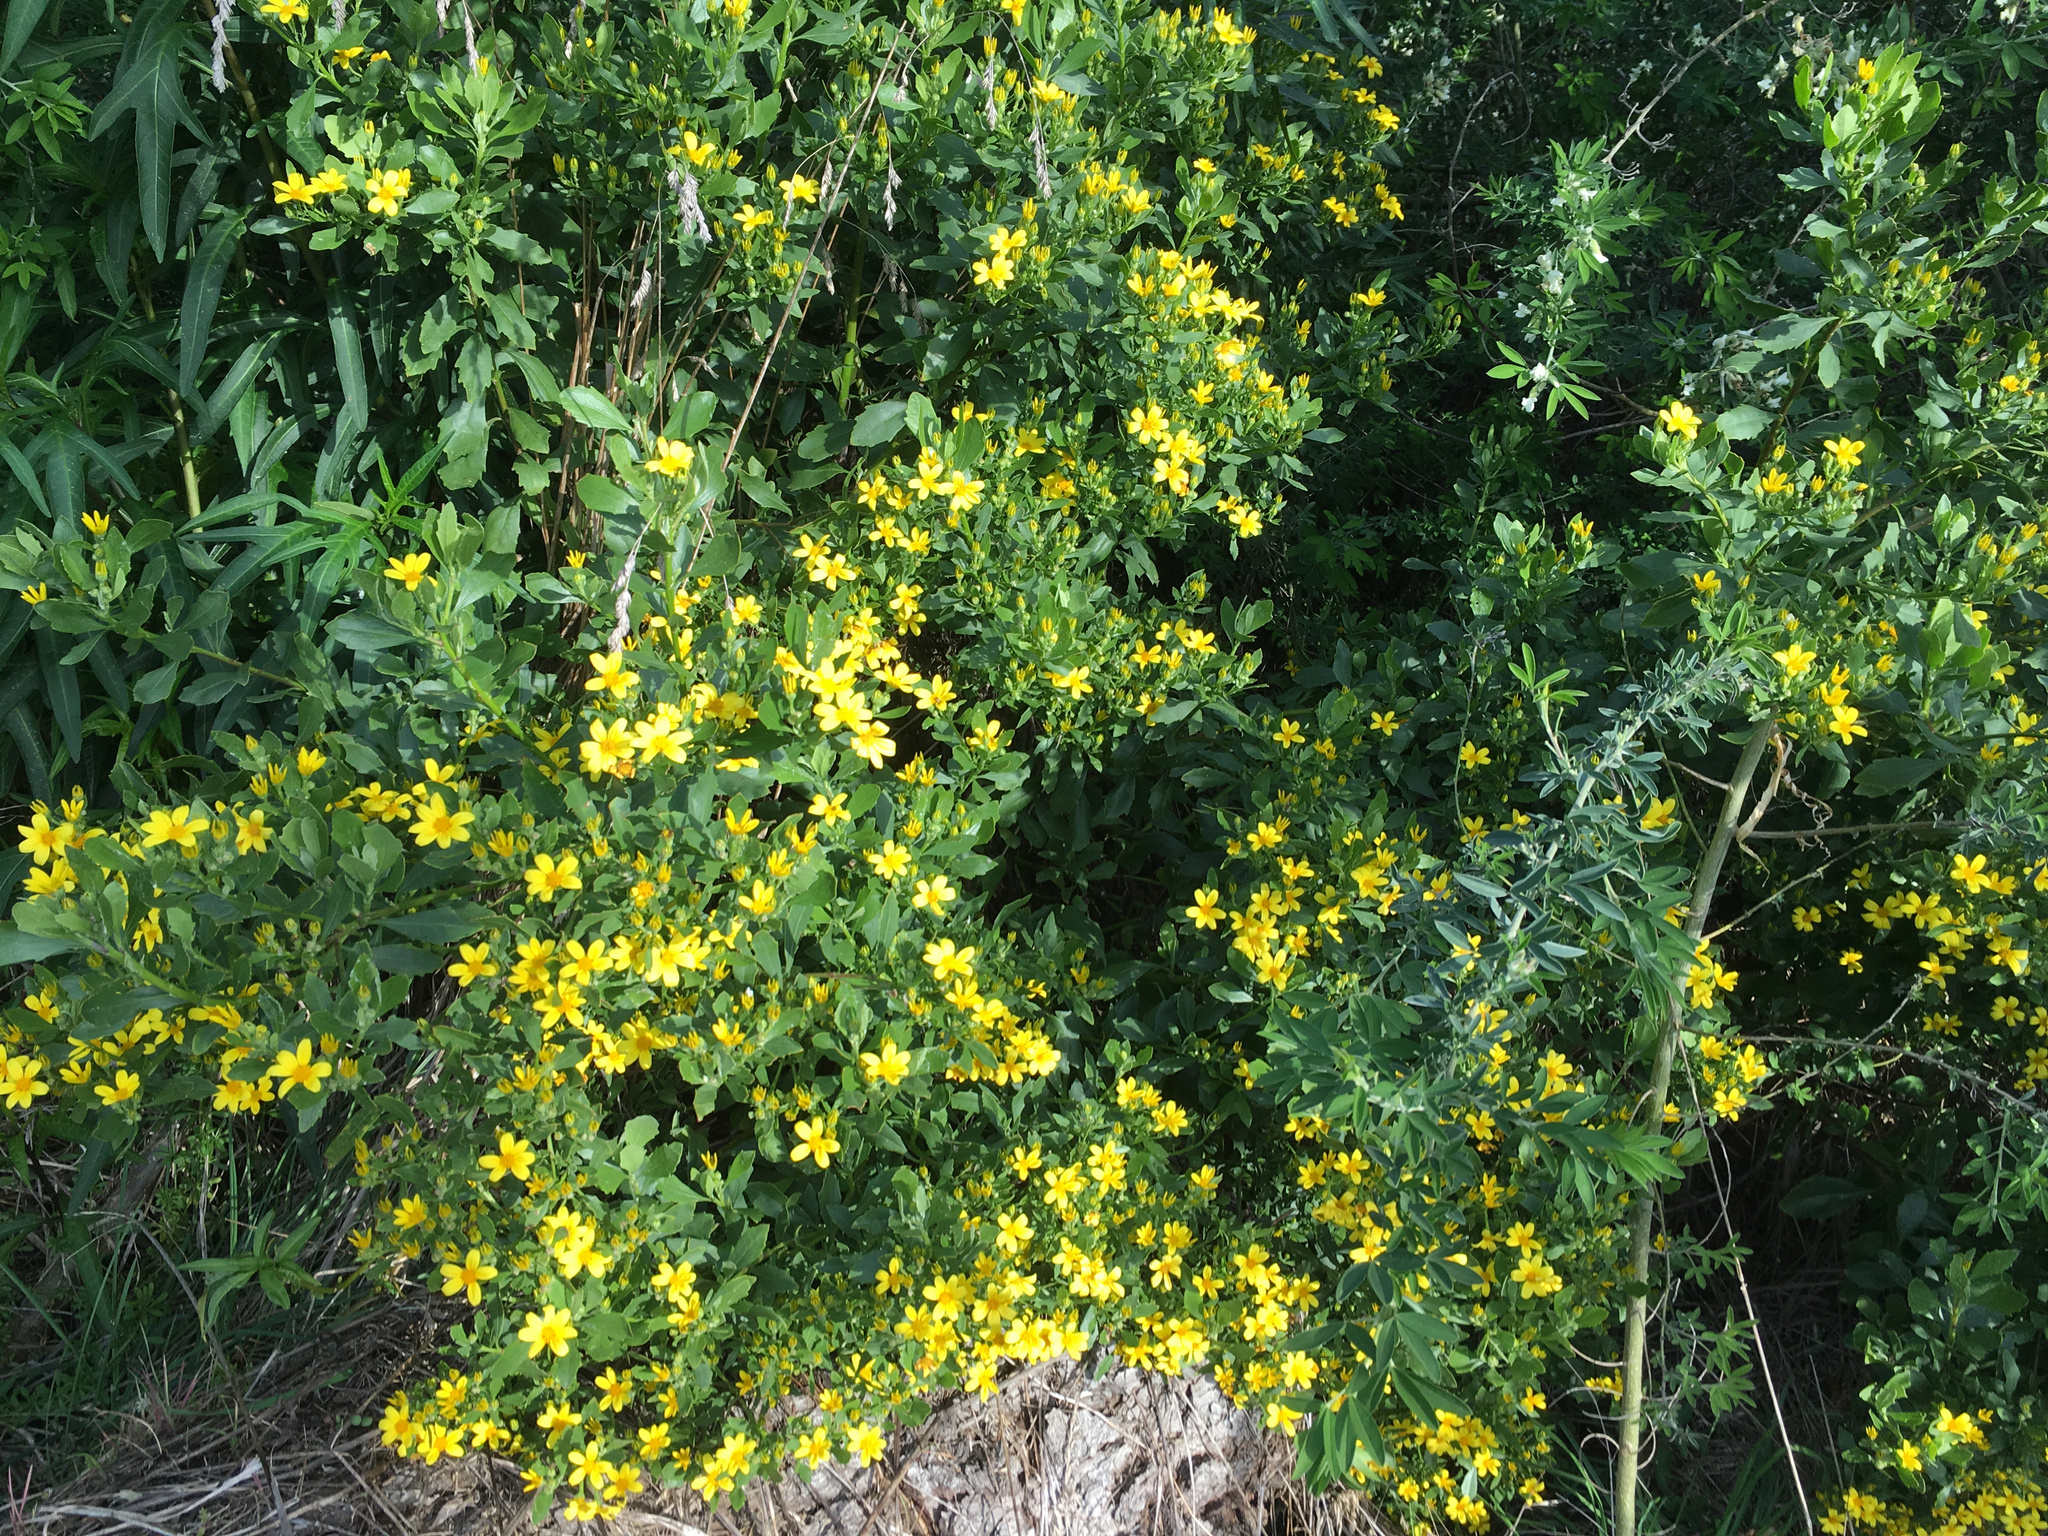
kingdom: Plantae
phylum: Tracheophyta
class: Magnoliopsida
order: Asterales
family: Asteraceae
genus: Osteospermum
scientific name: Osteospermum moniliferum
